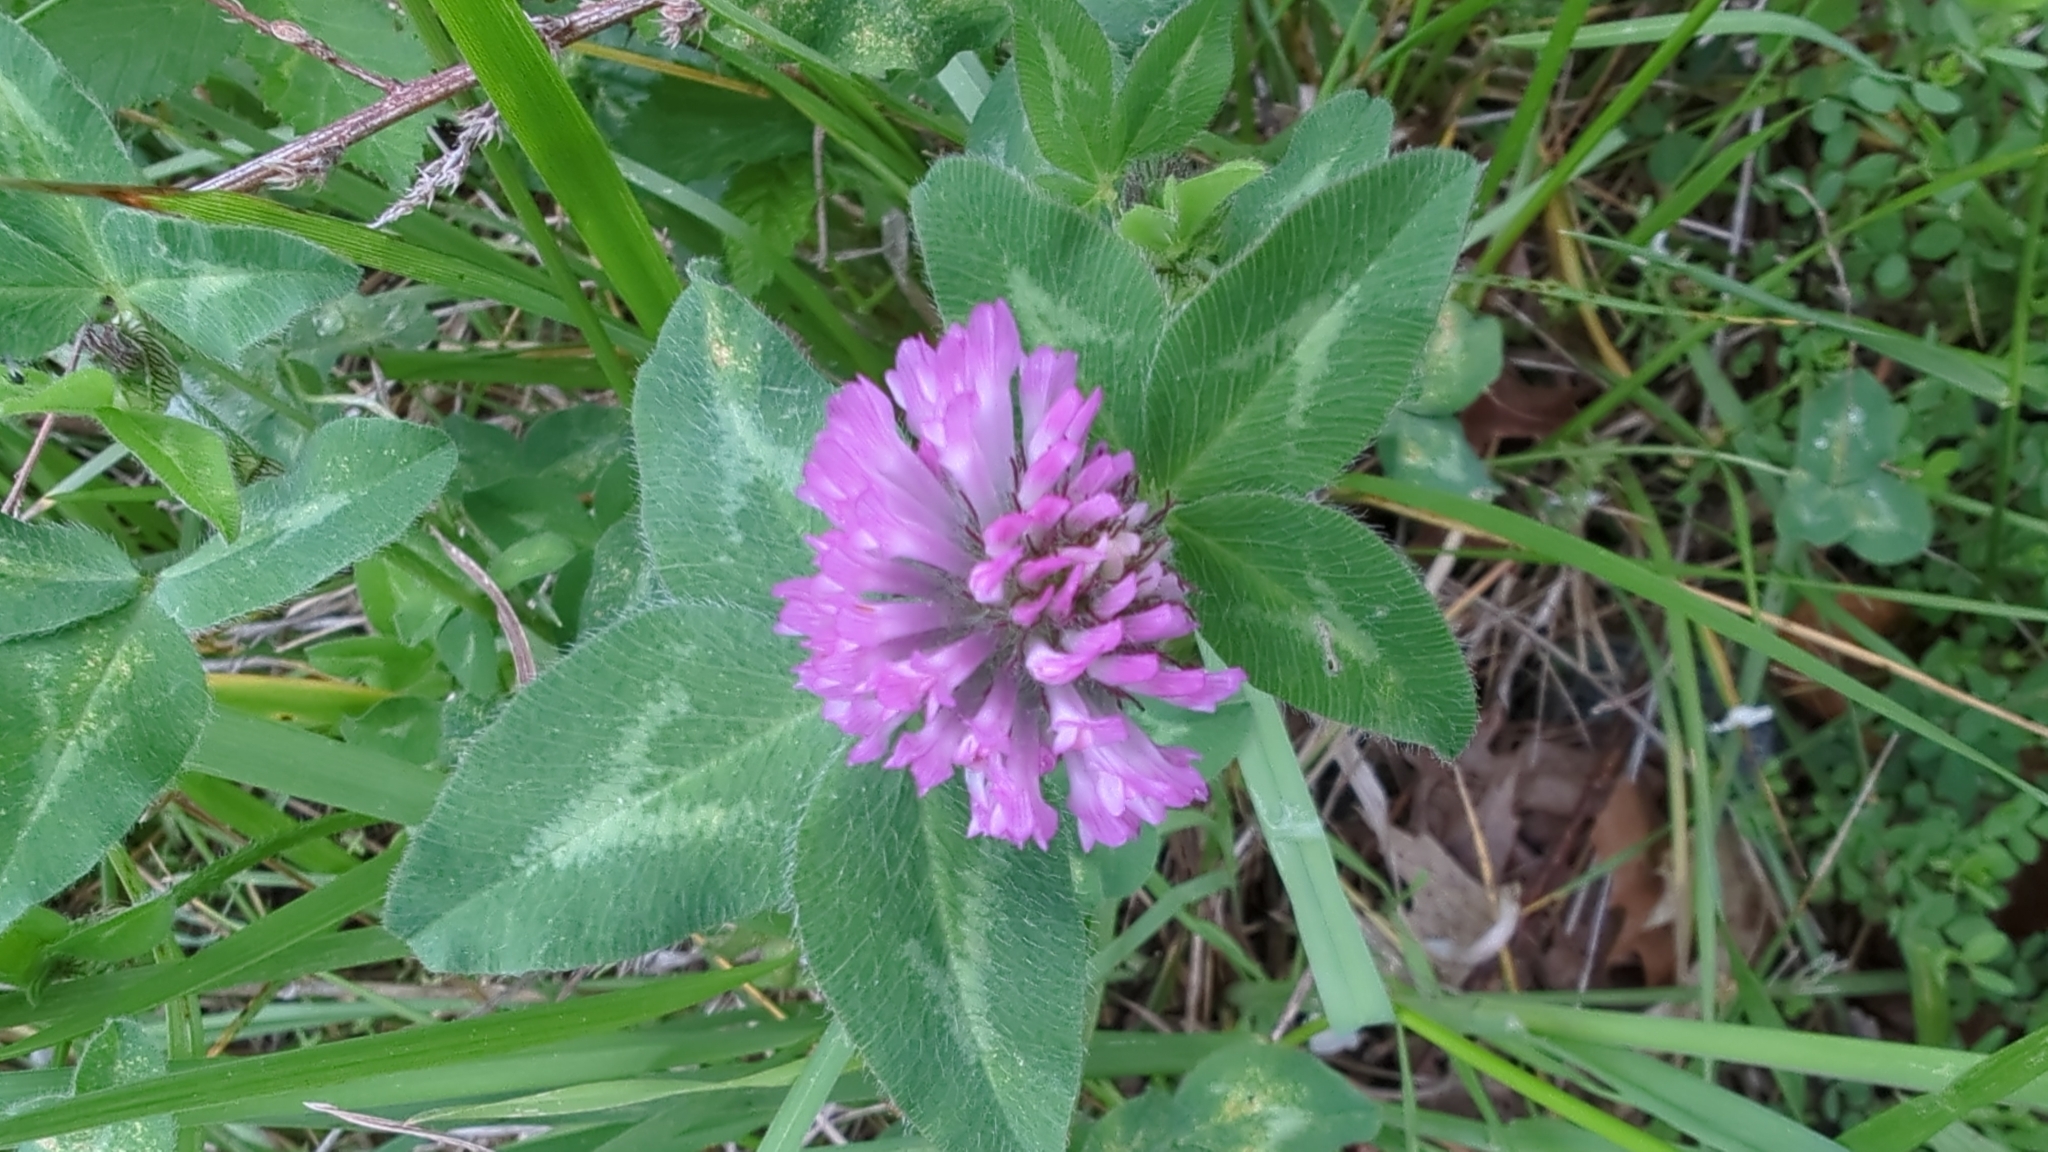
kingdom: Plantae
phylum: Tracheophyta
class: Magnoliopsida
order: Fabales
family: Fabaceae
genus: Trifolium
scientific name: Trifolium pratense
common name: Red clover
